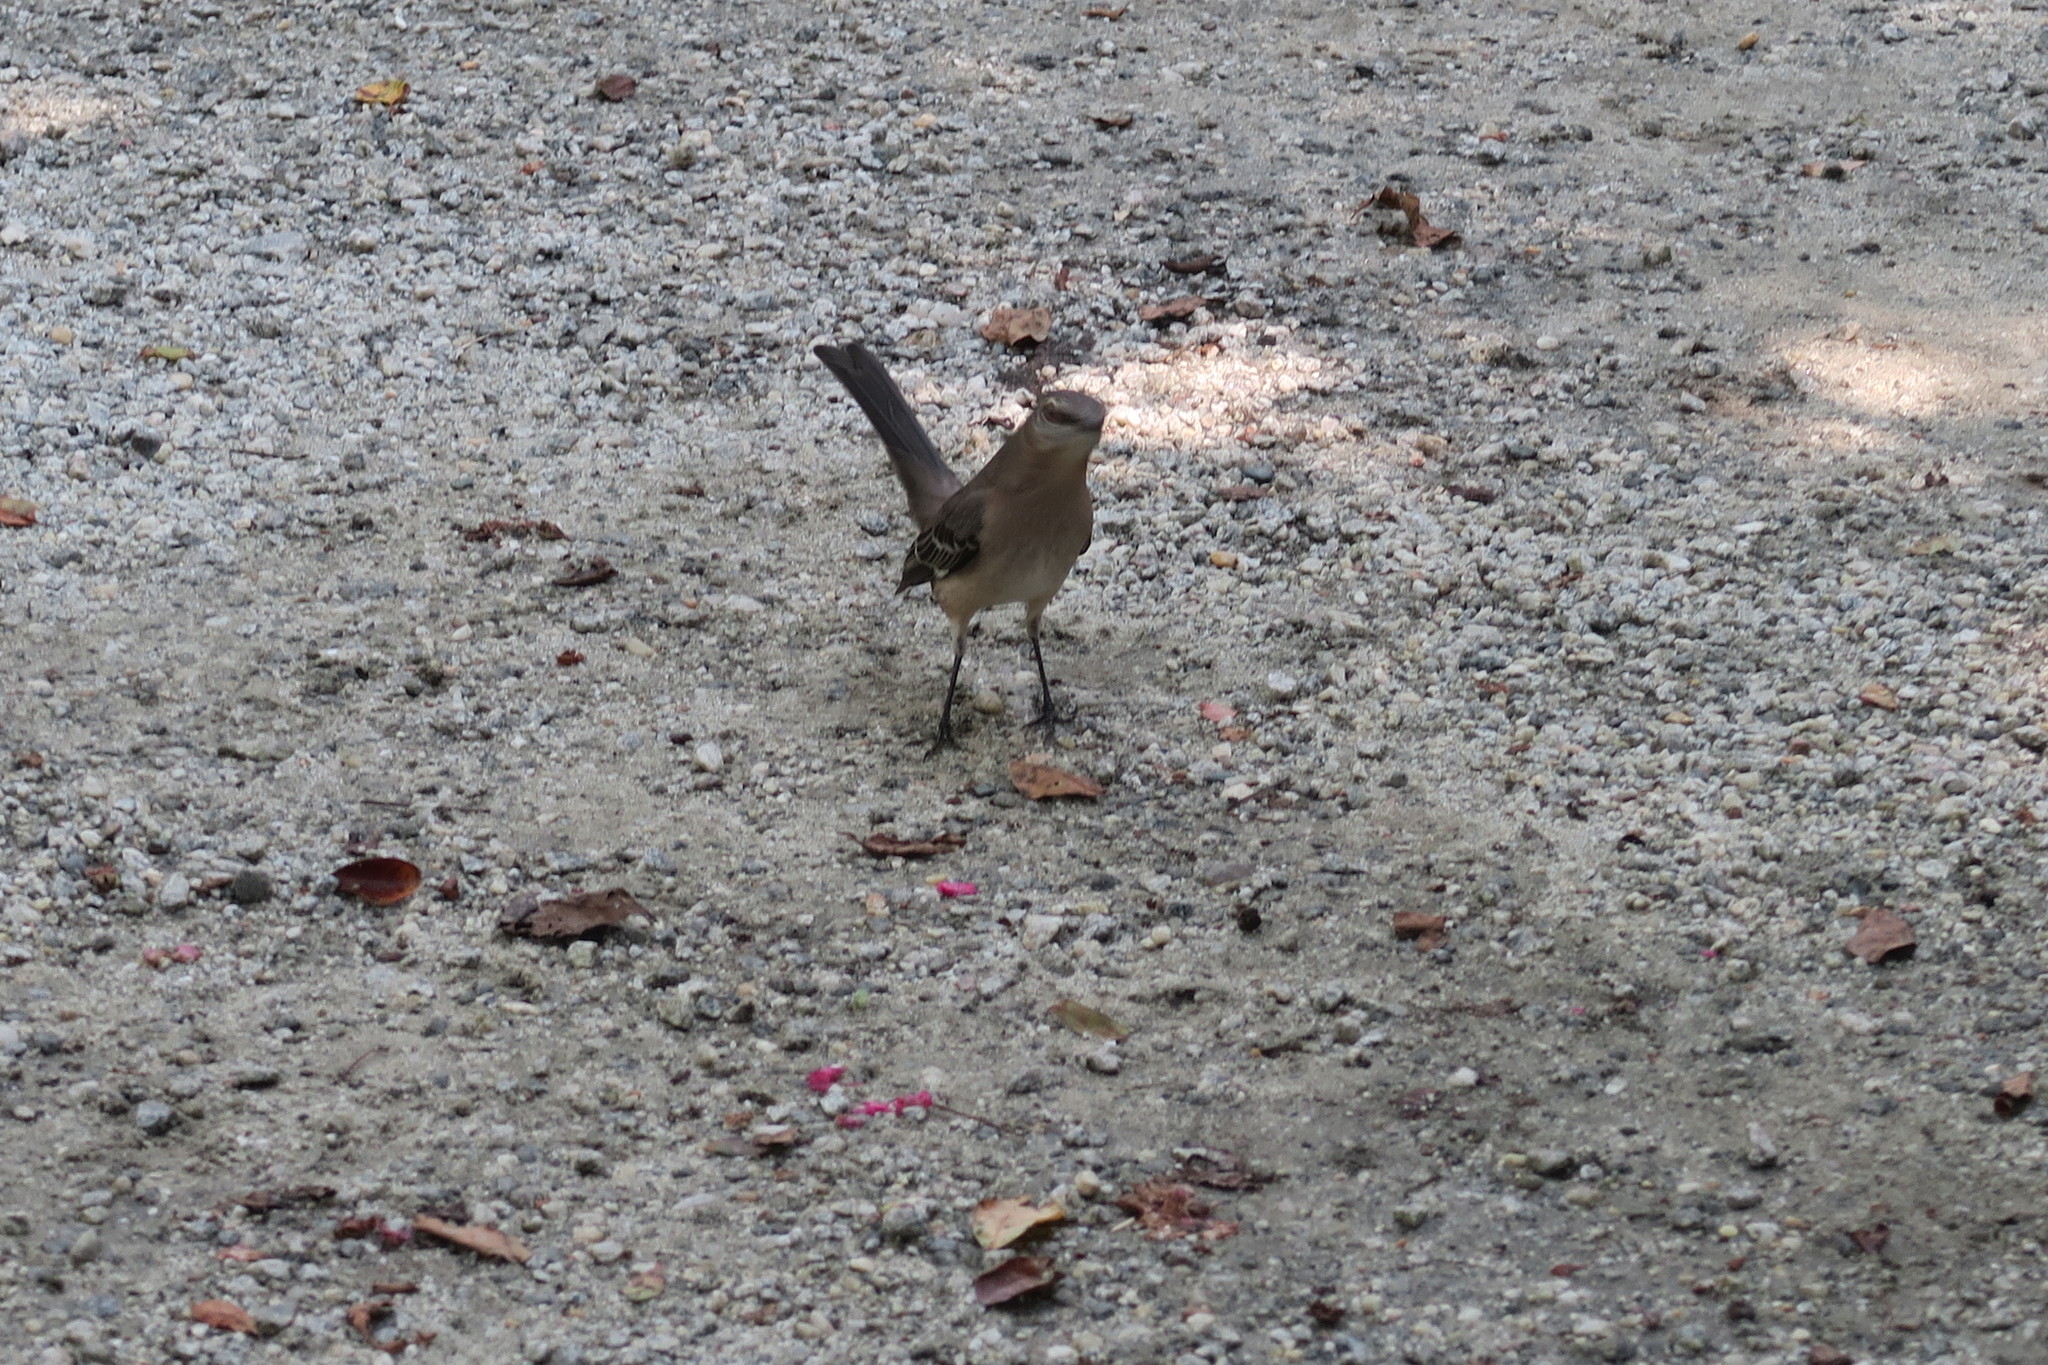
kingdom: Animalia
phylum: Chordata
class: Aves
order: Passeriformes
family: Mimidae
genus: Mimus
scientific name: Mimus polyglottos
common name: Northern mockingbird
